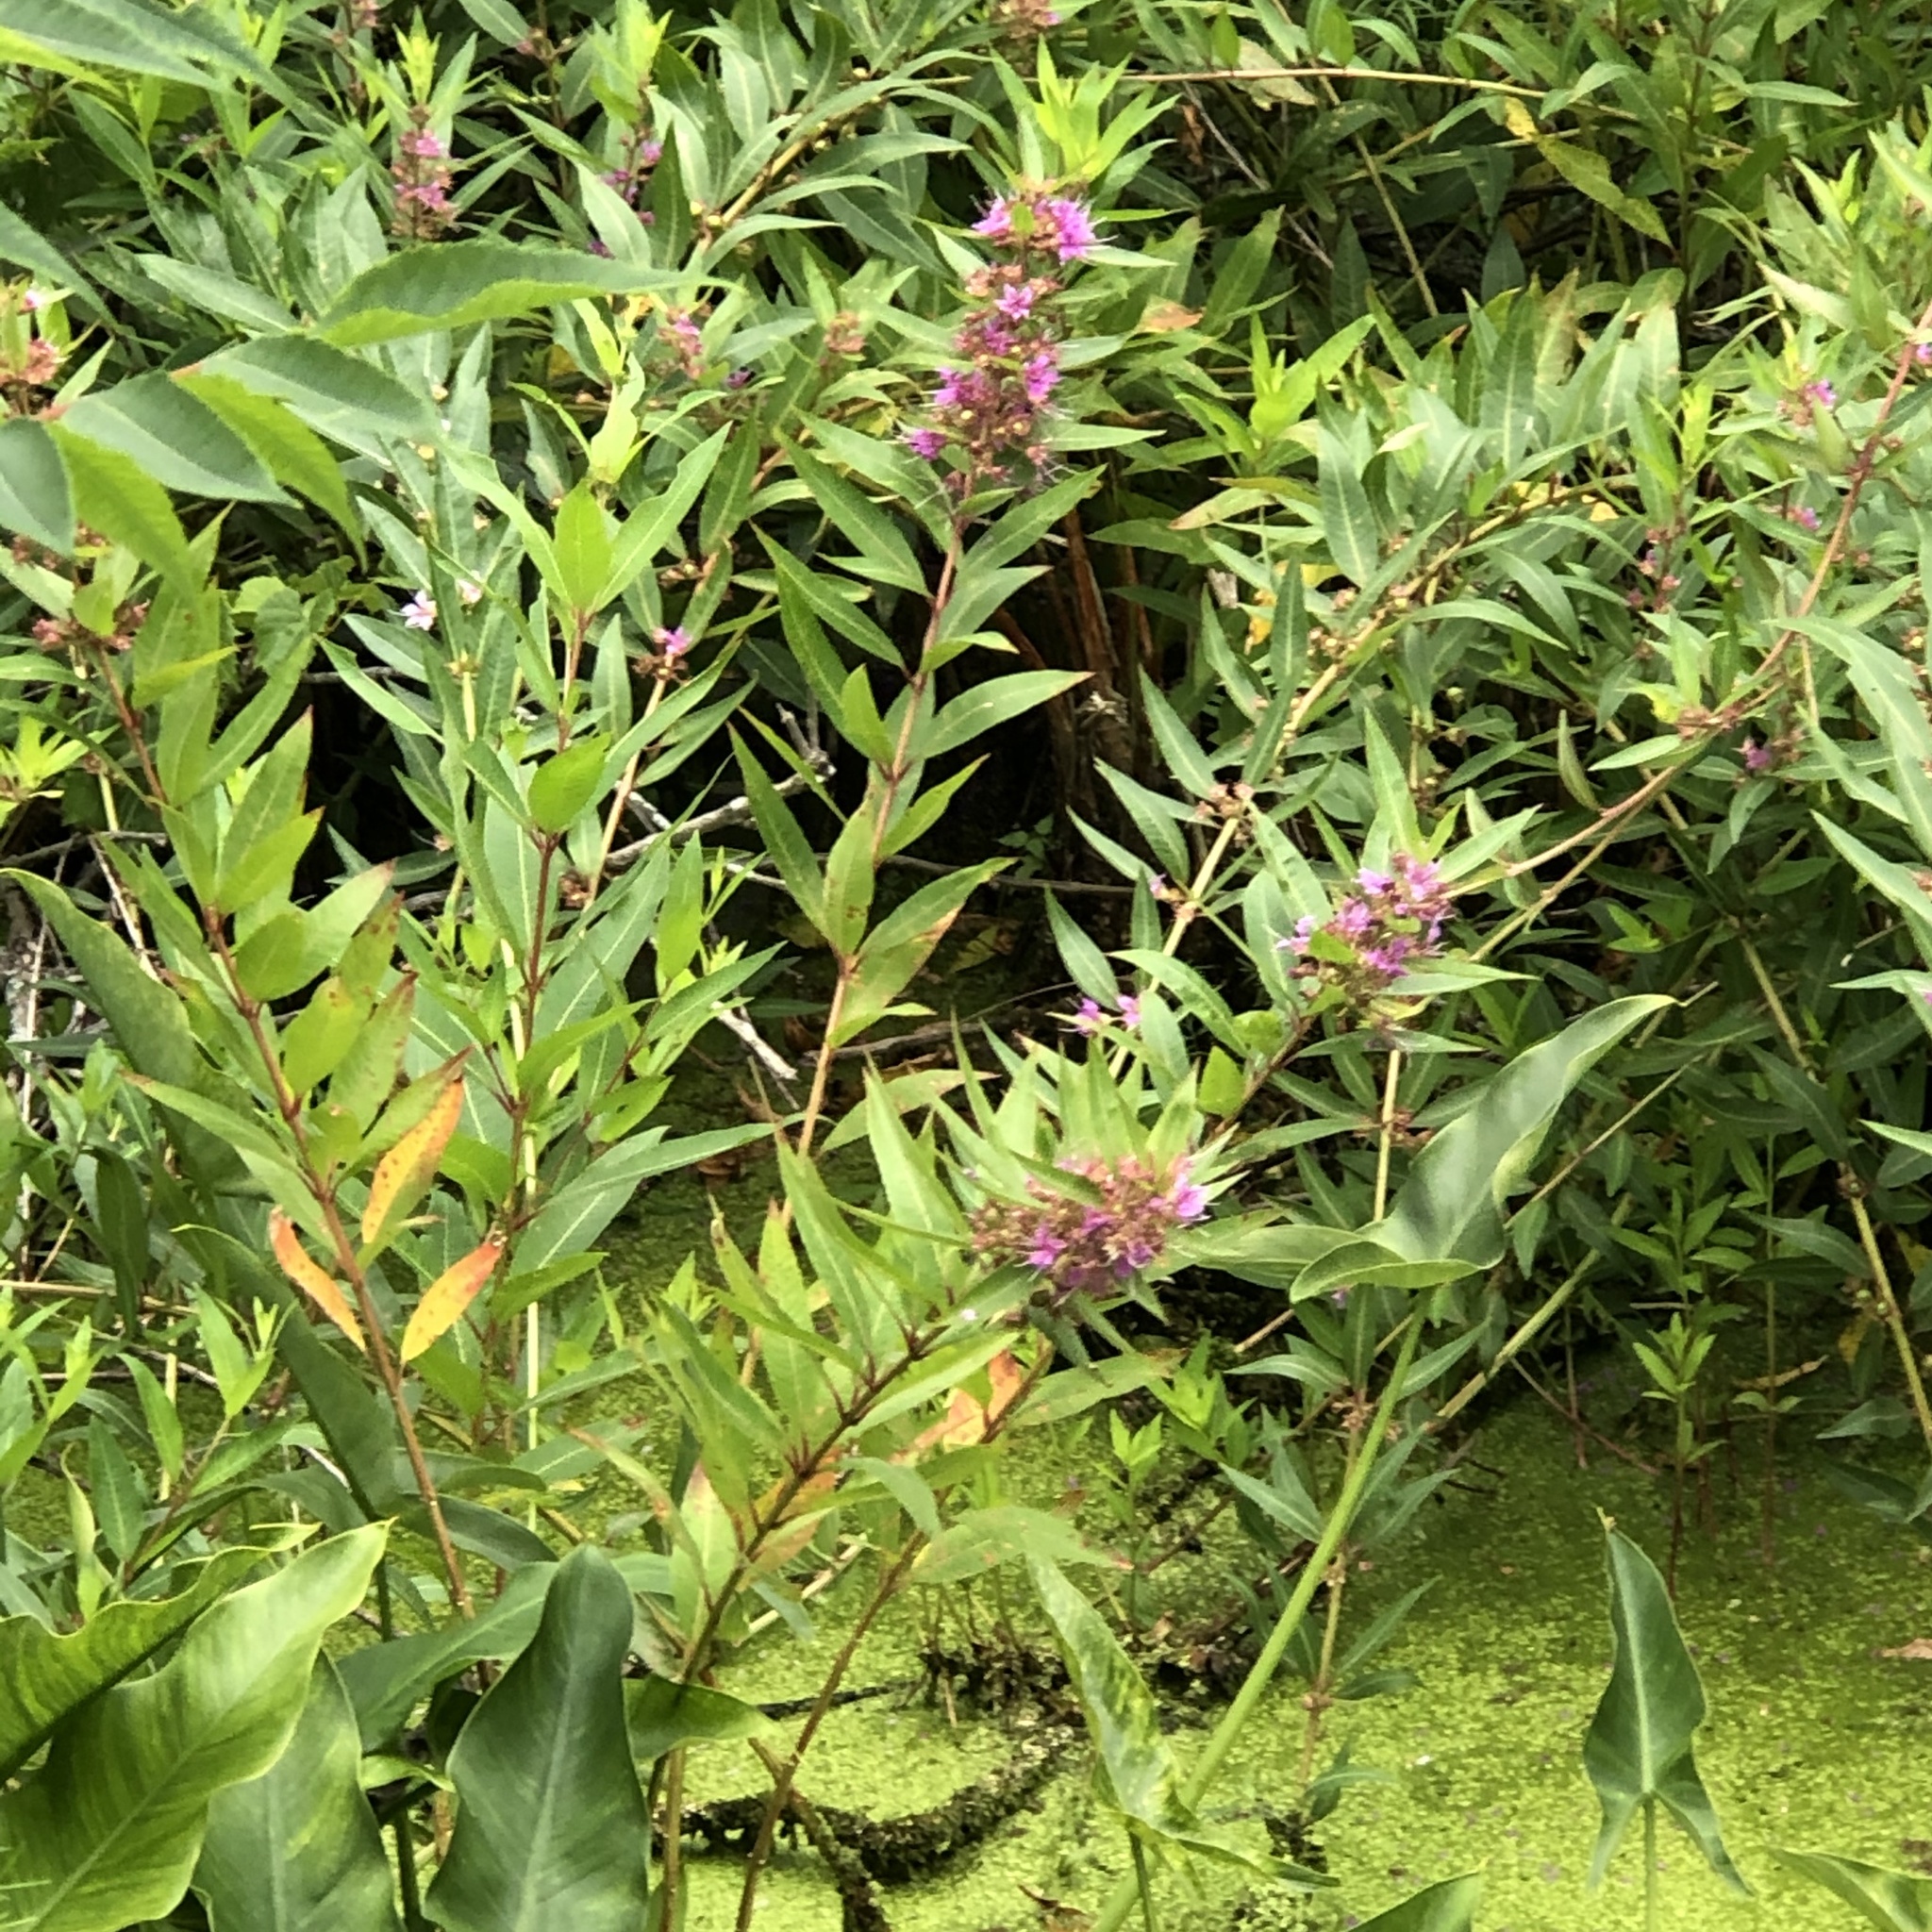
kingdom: Plantae
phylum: Tracheophyta
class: Magnoliopsida
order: Myrtales
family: Lythraceae
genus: Decodon
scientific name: Decodon verticillatus
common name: Hairy swamp loosestrife
